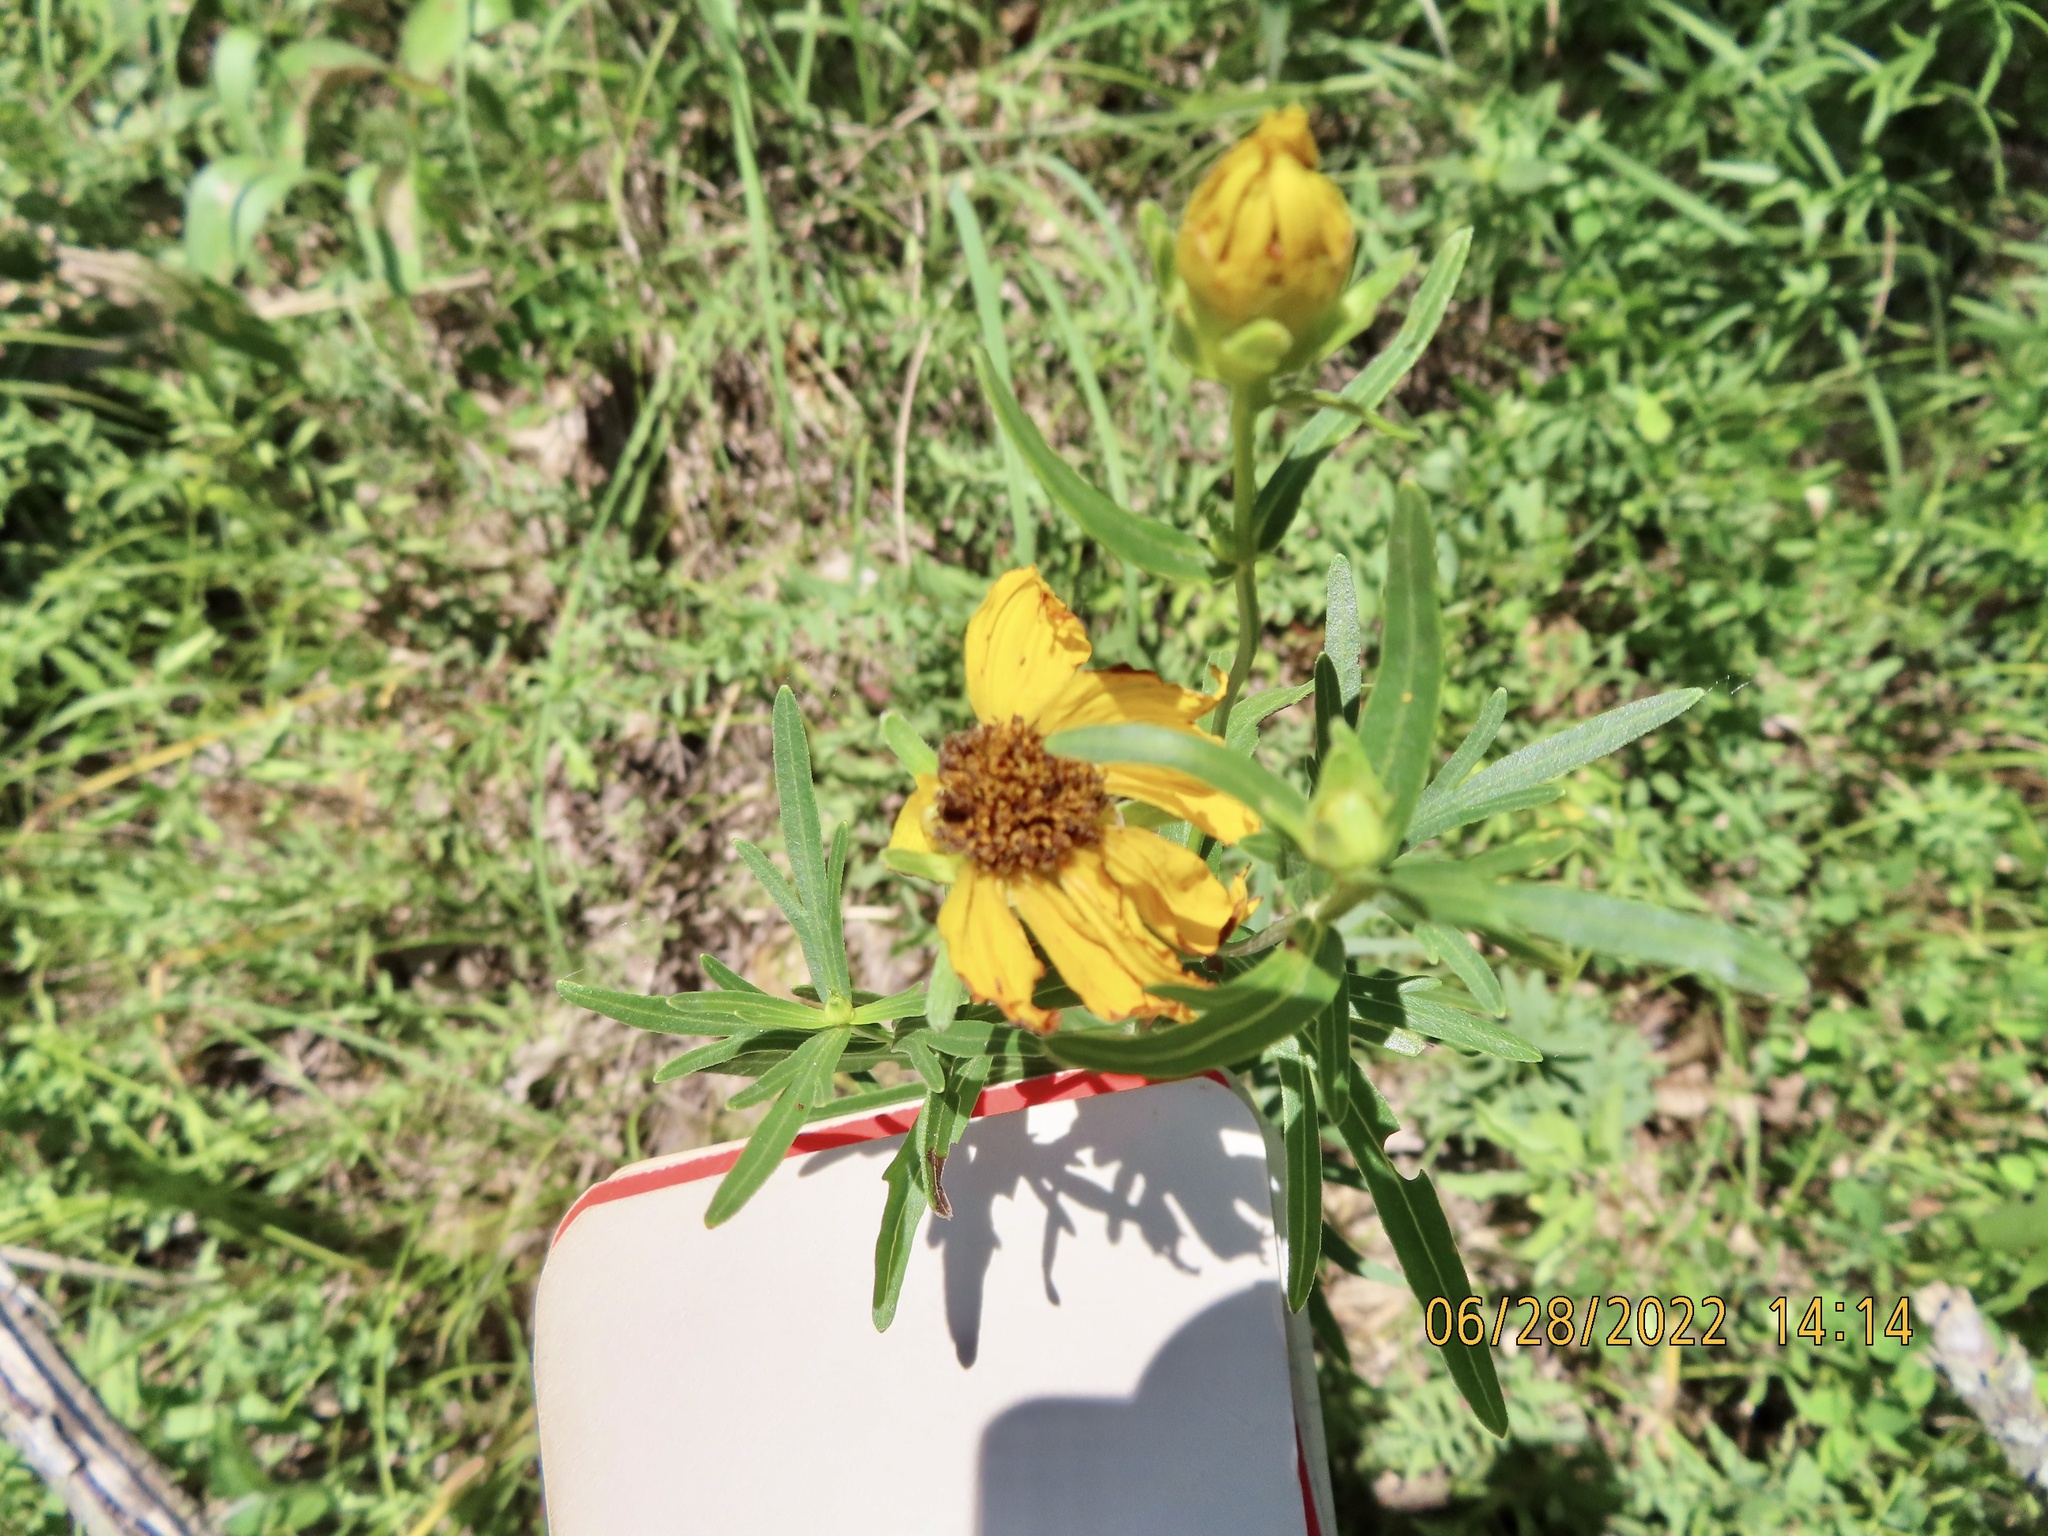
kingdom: Plantae
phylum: Tracheophyta
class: Magnoliopsida
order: Asterales
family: Asteraceae
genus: Coreopsis
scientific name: Coreopsis palmata
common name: Prairie coreopsis
